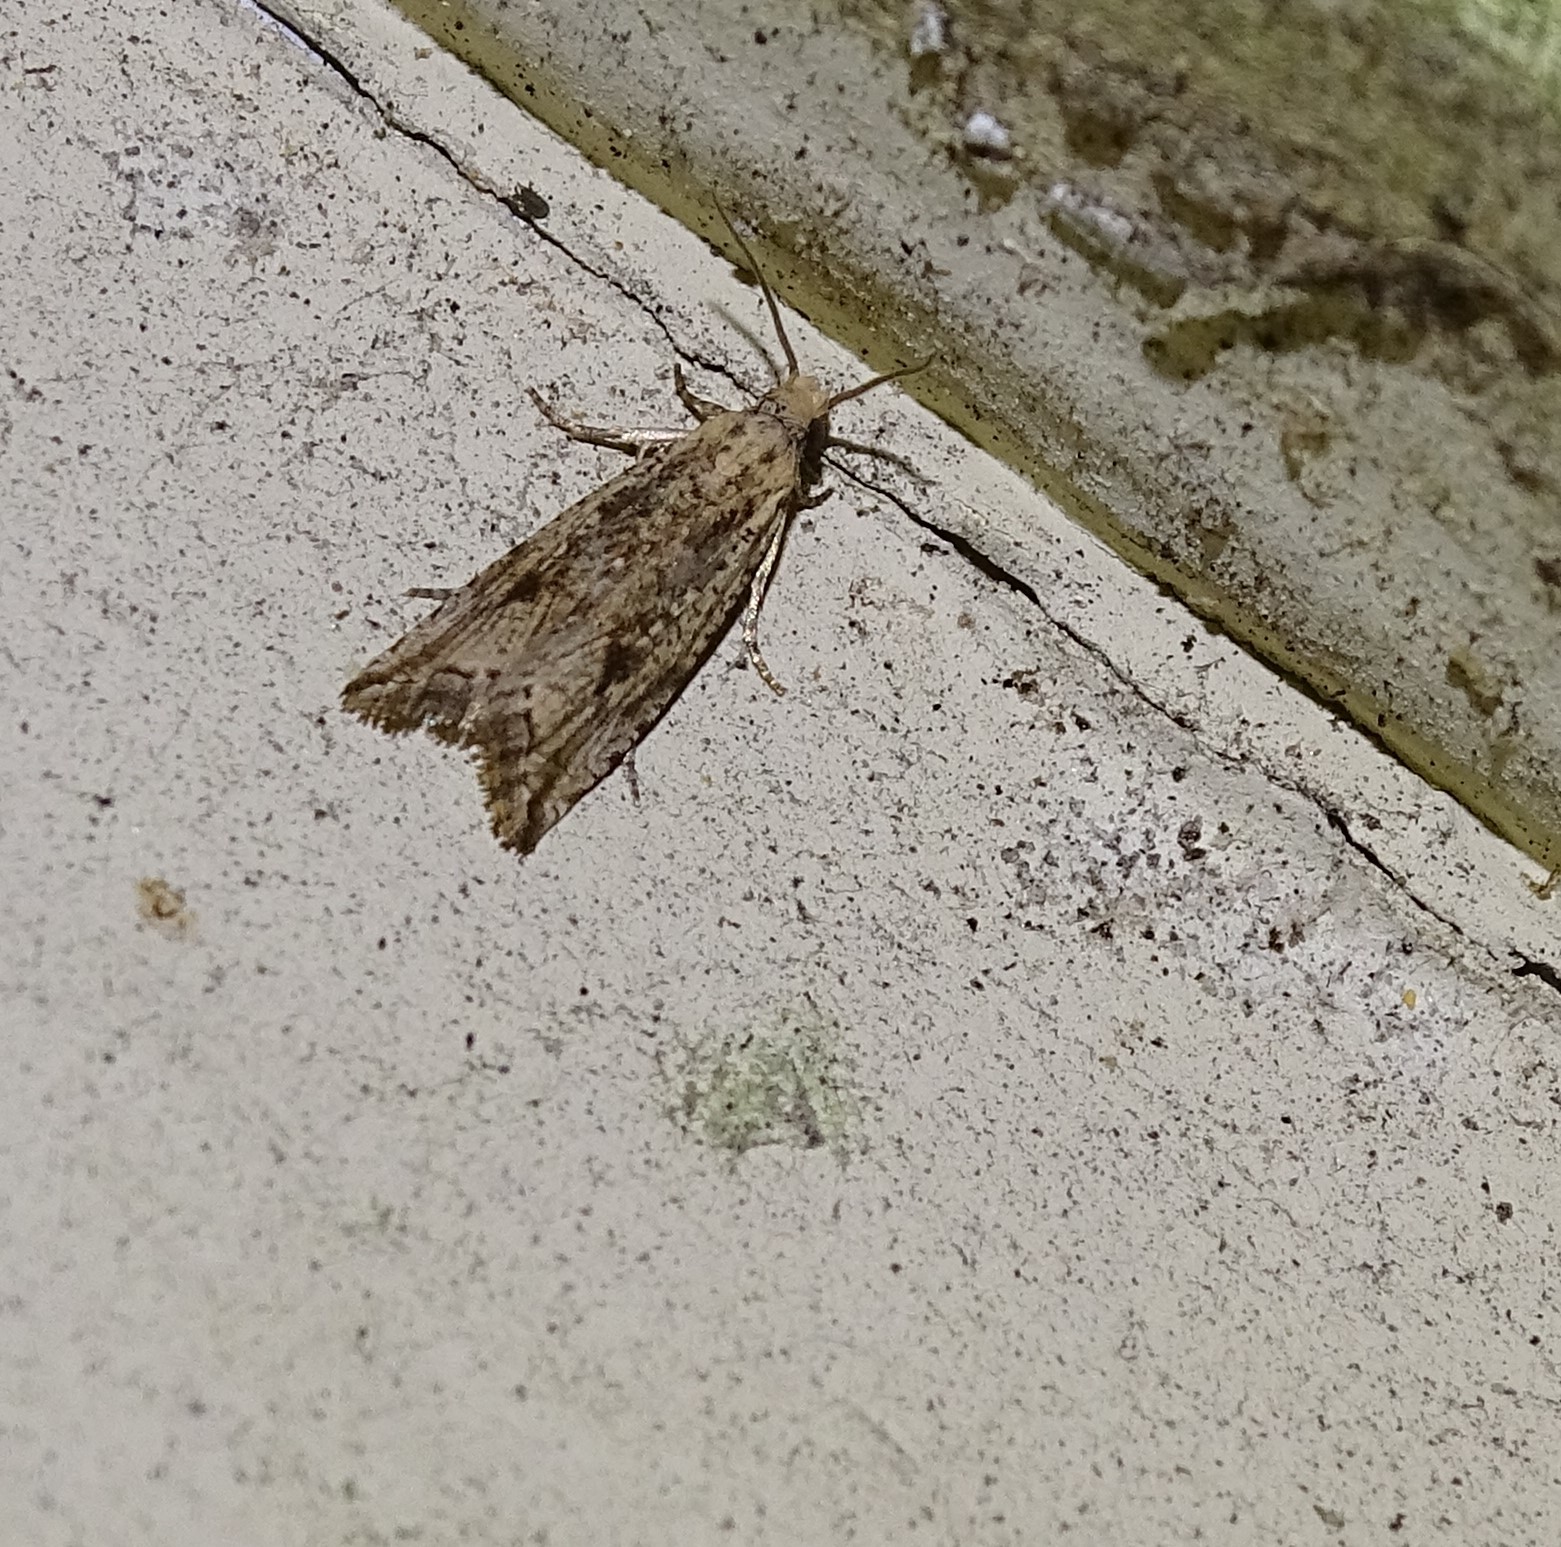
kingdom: Animalia
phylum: Arthropoda
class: Insecta
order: Lepidoptera
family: Tortricidae
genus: Bactra
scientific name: Bactra verutana
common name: Javelin moth
